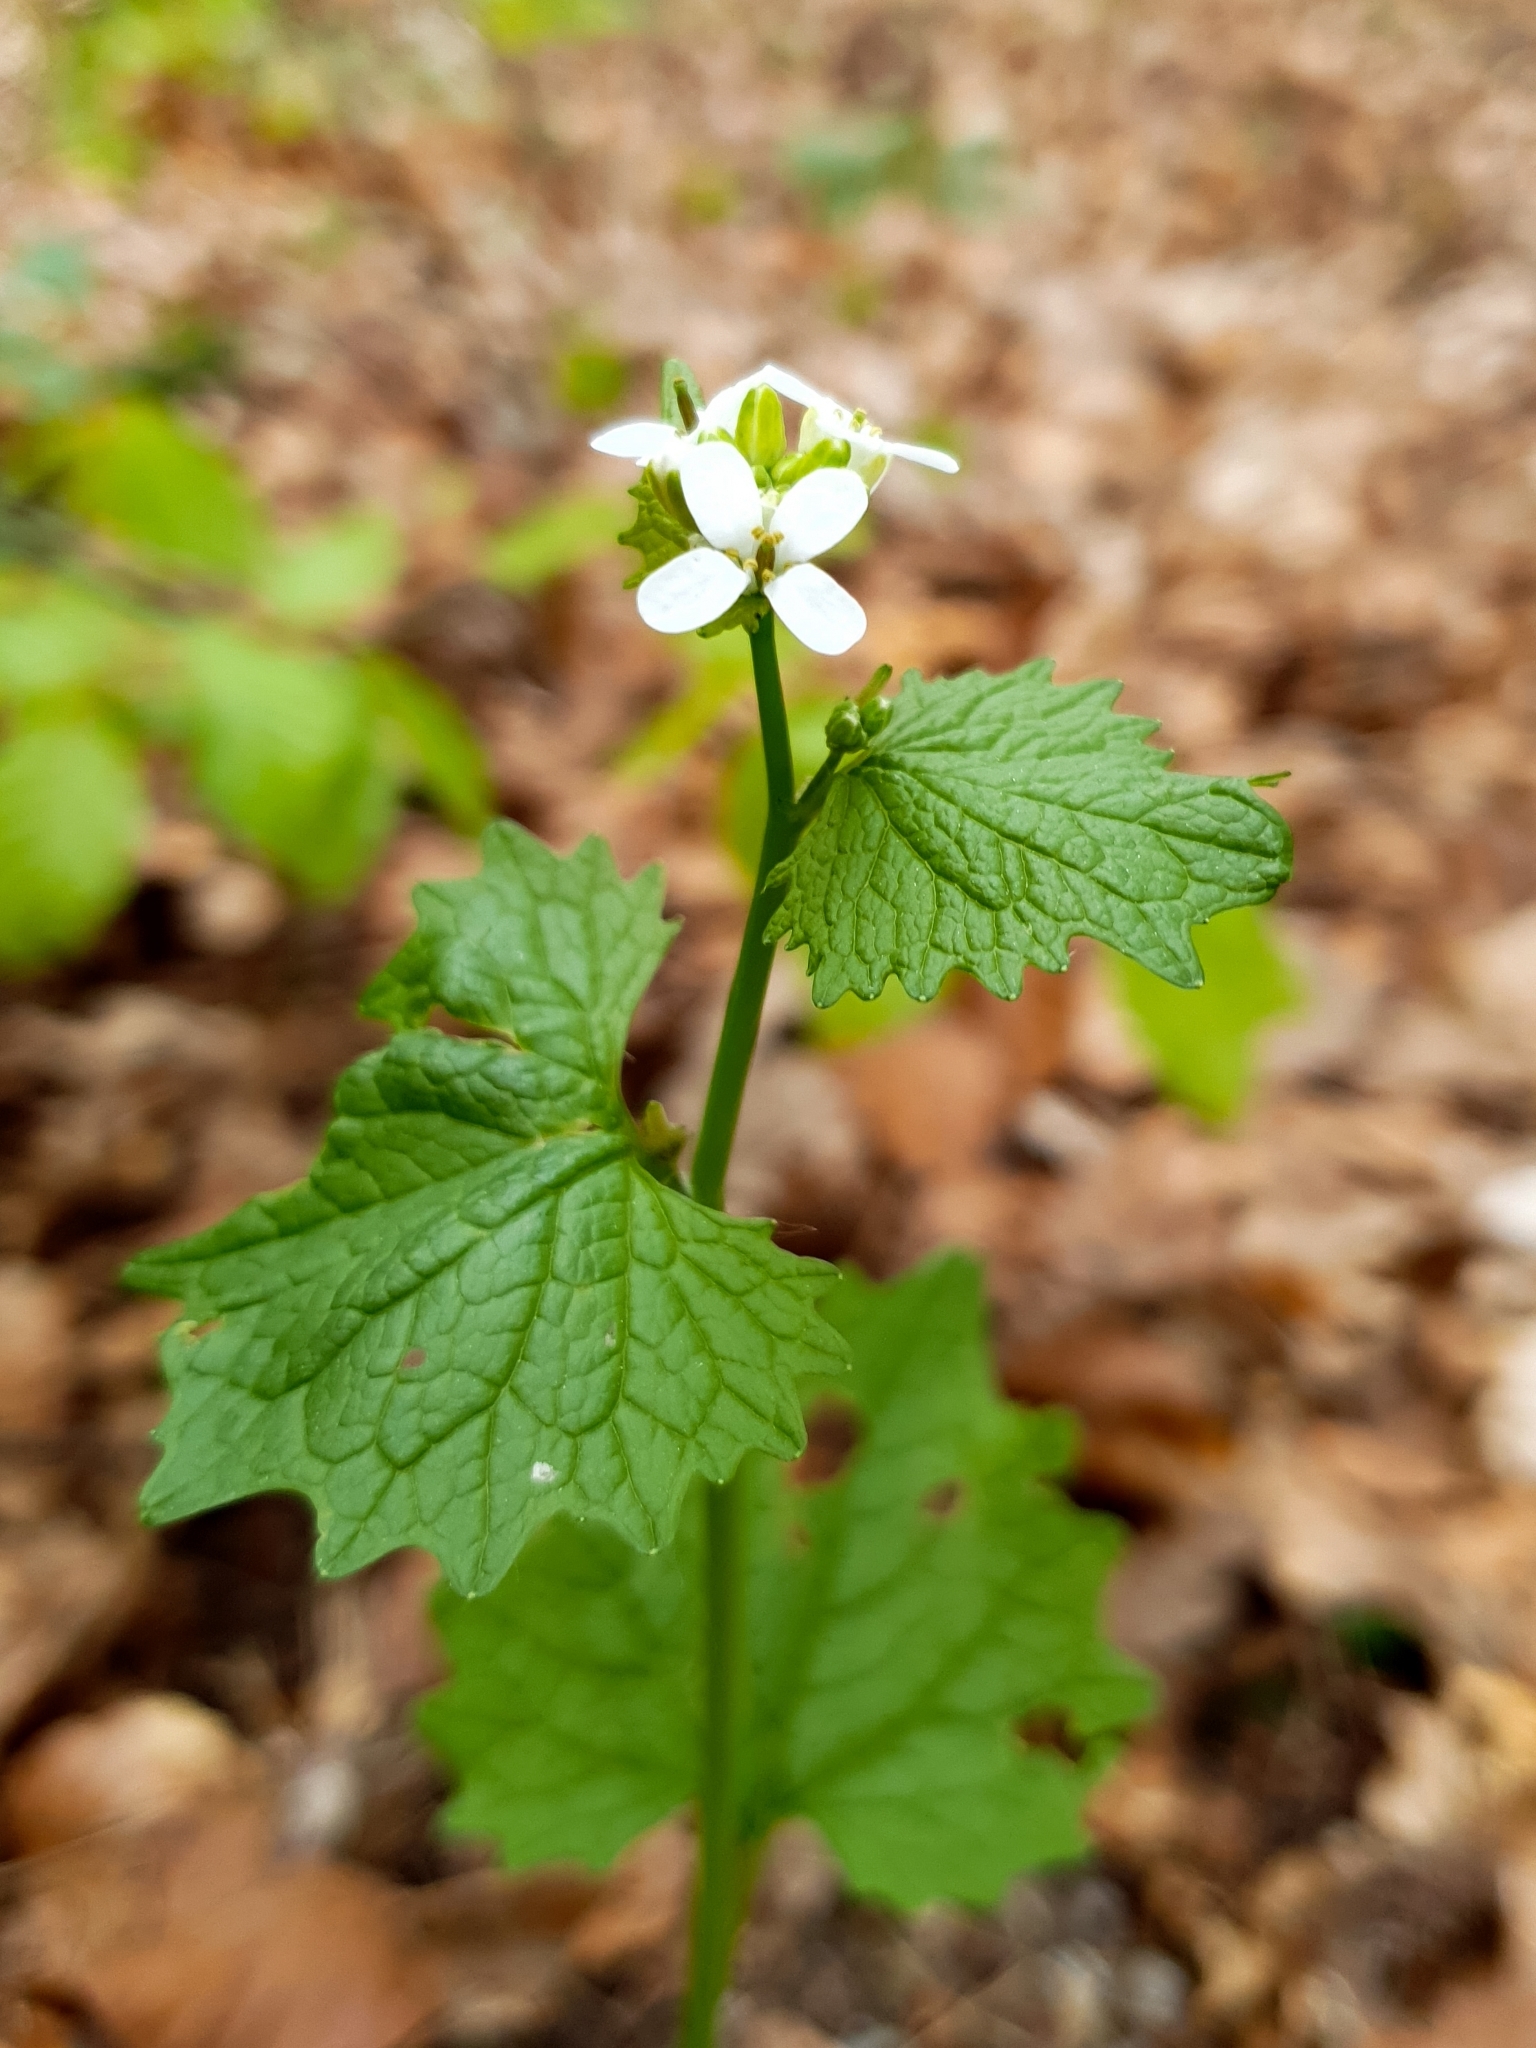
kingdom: Plantae
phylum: Tracheophyta
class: Magnoliopsida
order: Brassicales
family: Brassicaceae
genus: Alliaria
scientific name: Alliaria petiolata
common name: Garlic mustard
